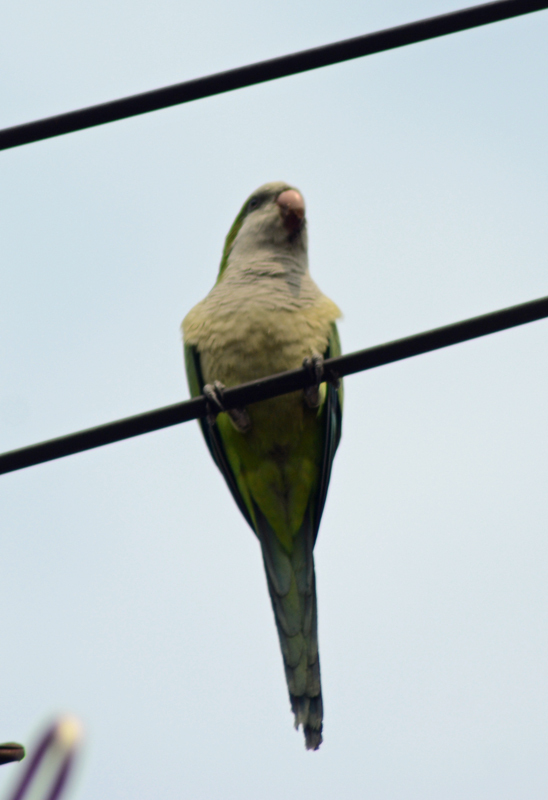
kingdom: Animalia
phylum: Chordata
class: Aves
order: Psittaciformes
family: Psittacidae
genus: Myiopsitta
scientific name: Myiopsitta monachus
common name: Monk parakeet
